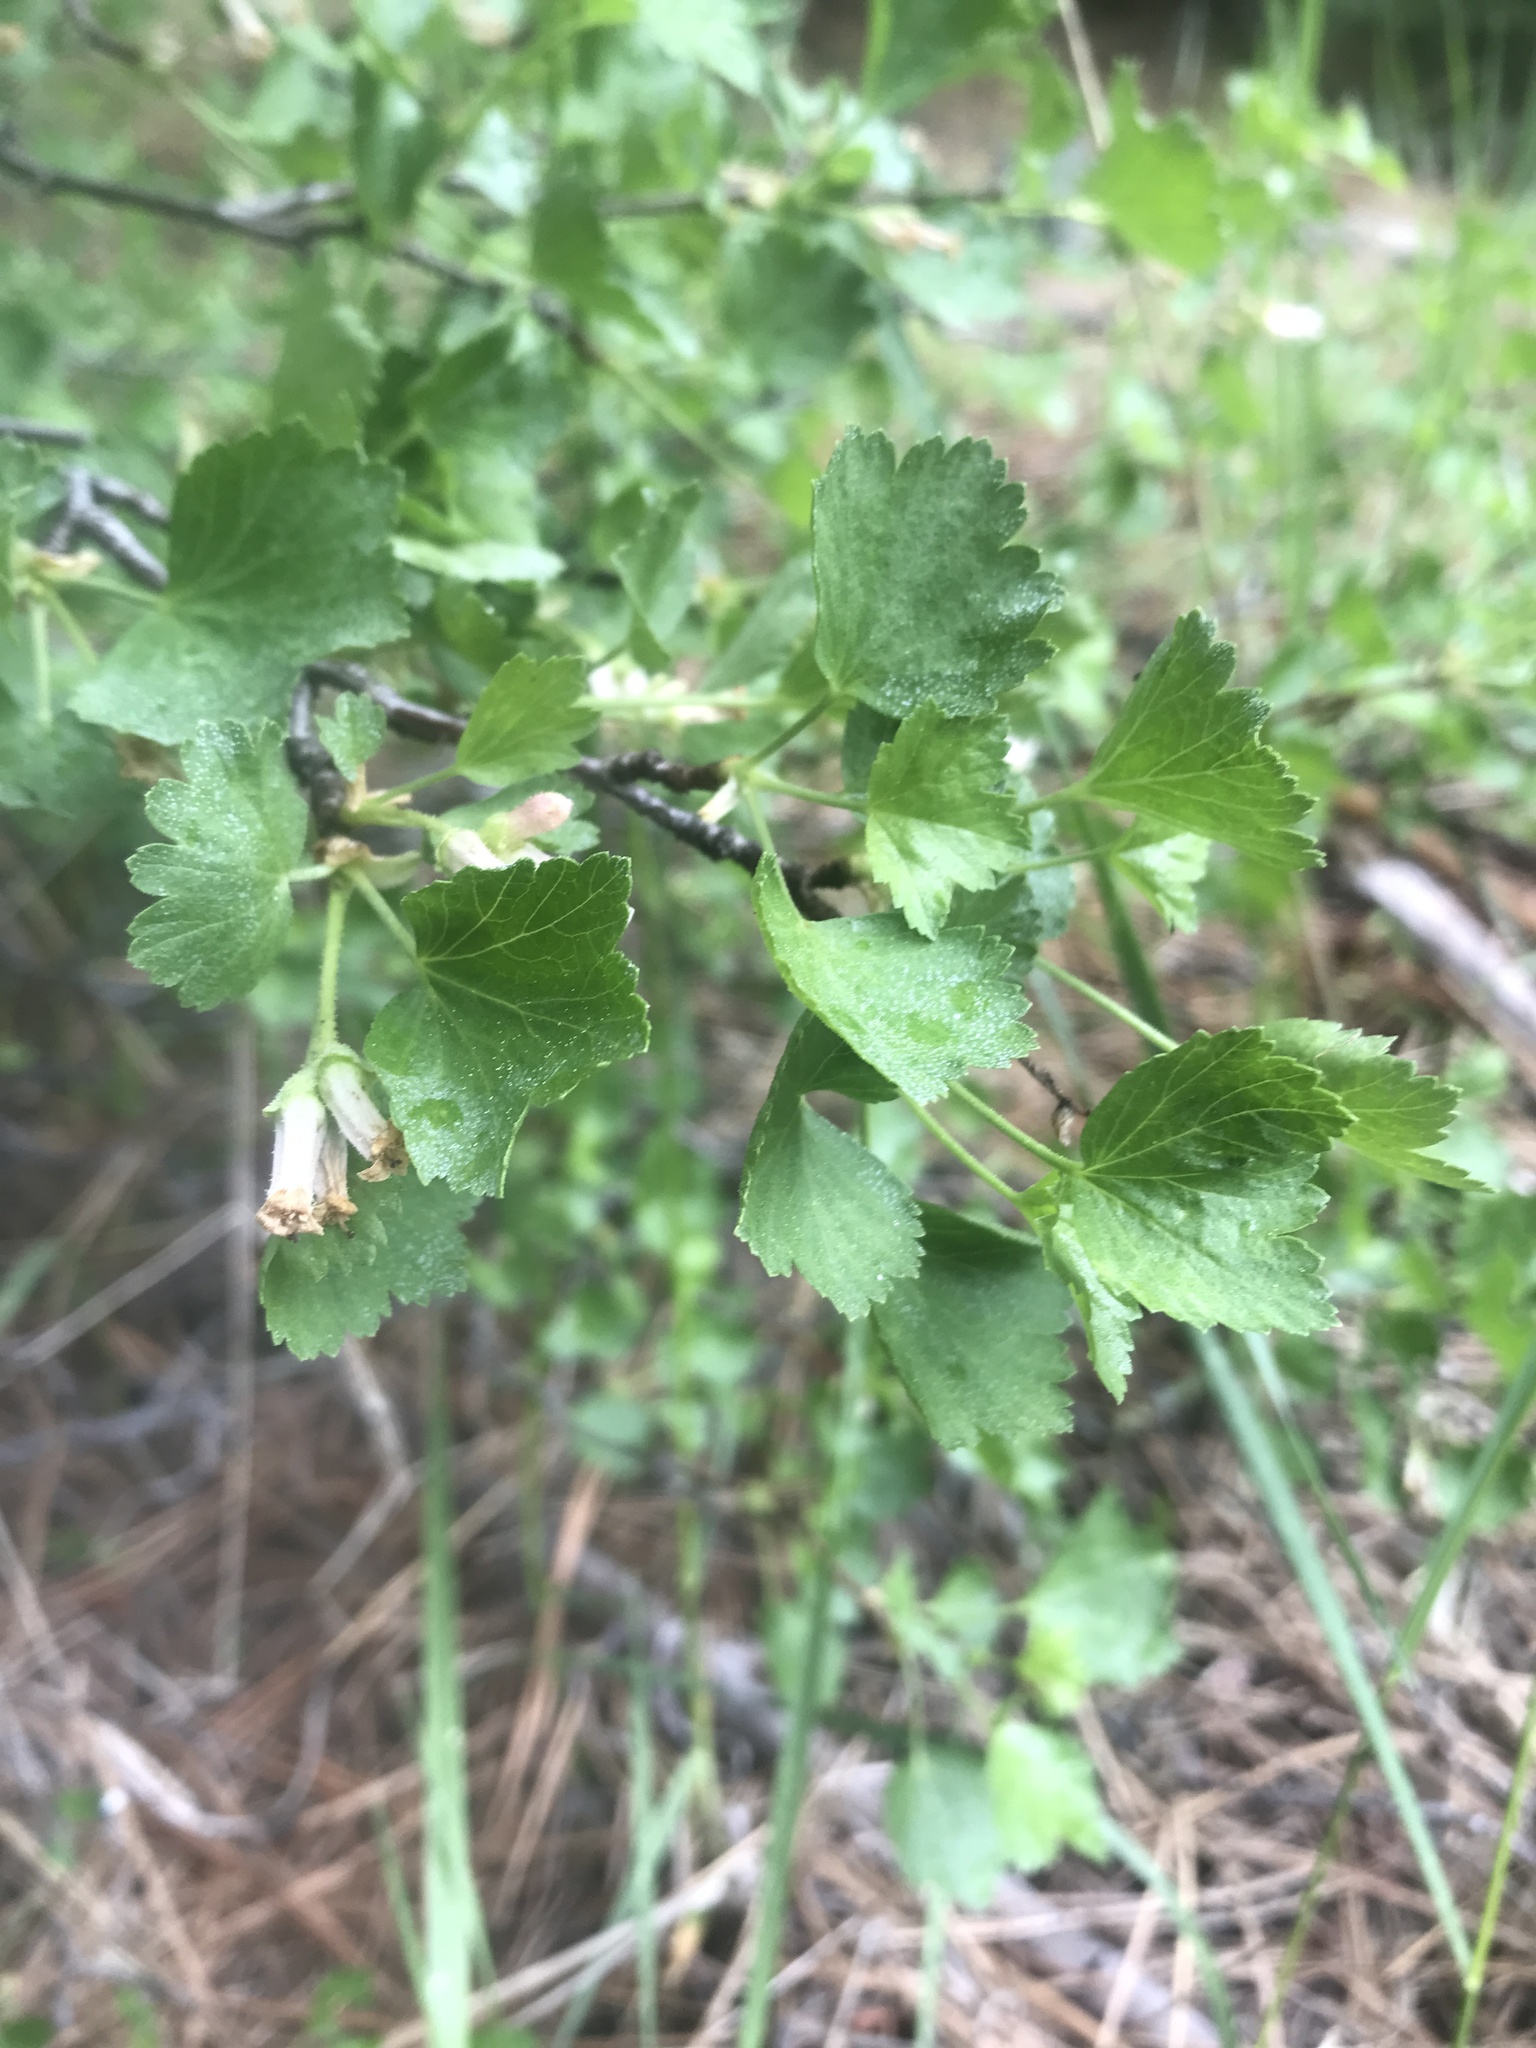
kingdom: Plantae
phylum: Tracheophyta
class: Magnoliopsida
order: Saxifragales
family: Grossulariaceae
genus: Ribes
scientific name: Ribes cereum
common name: Wax currant
